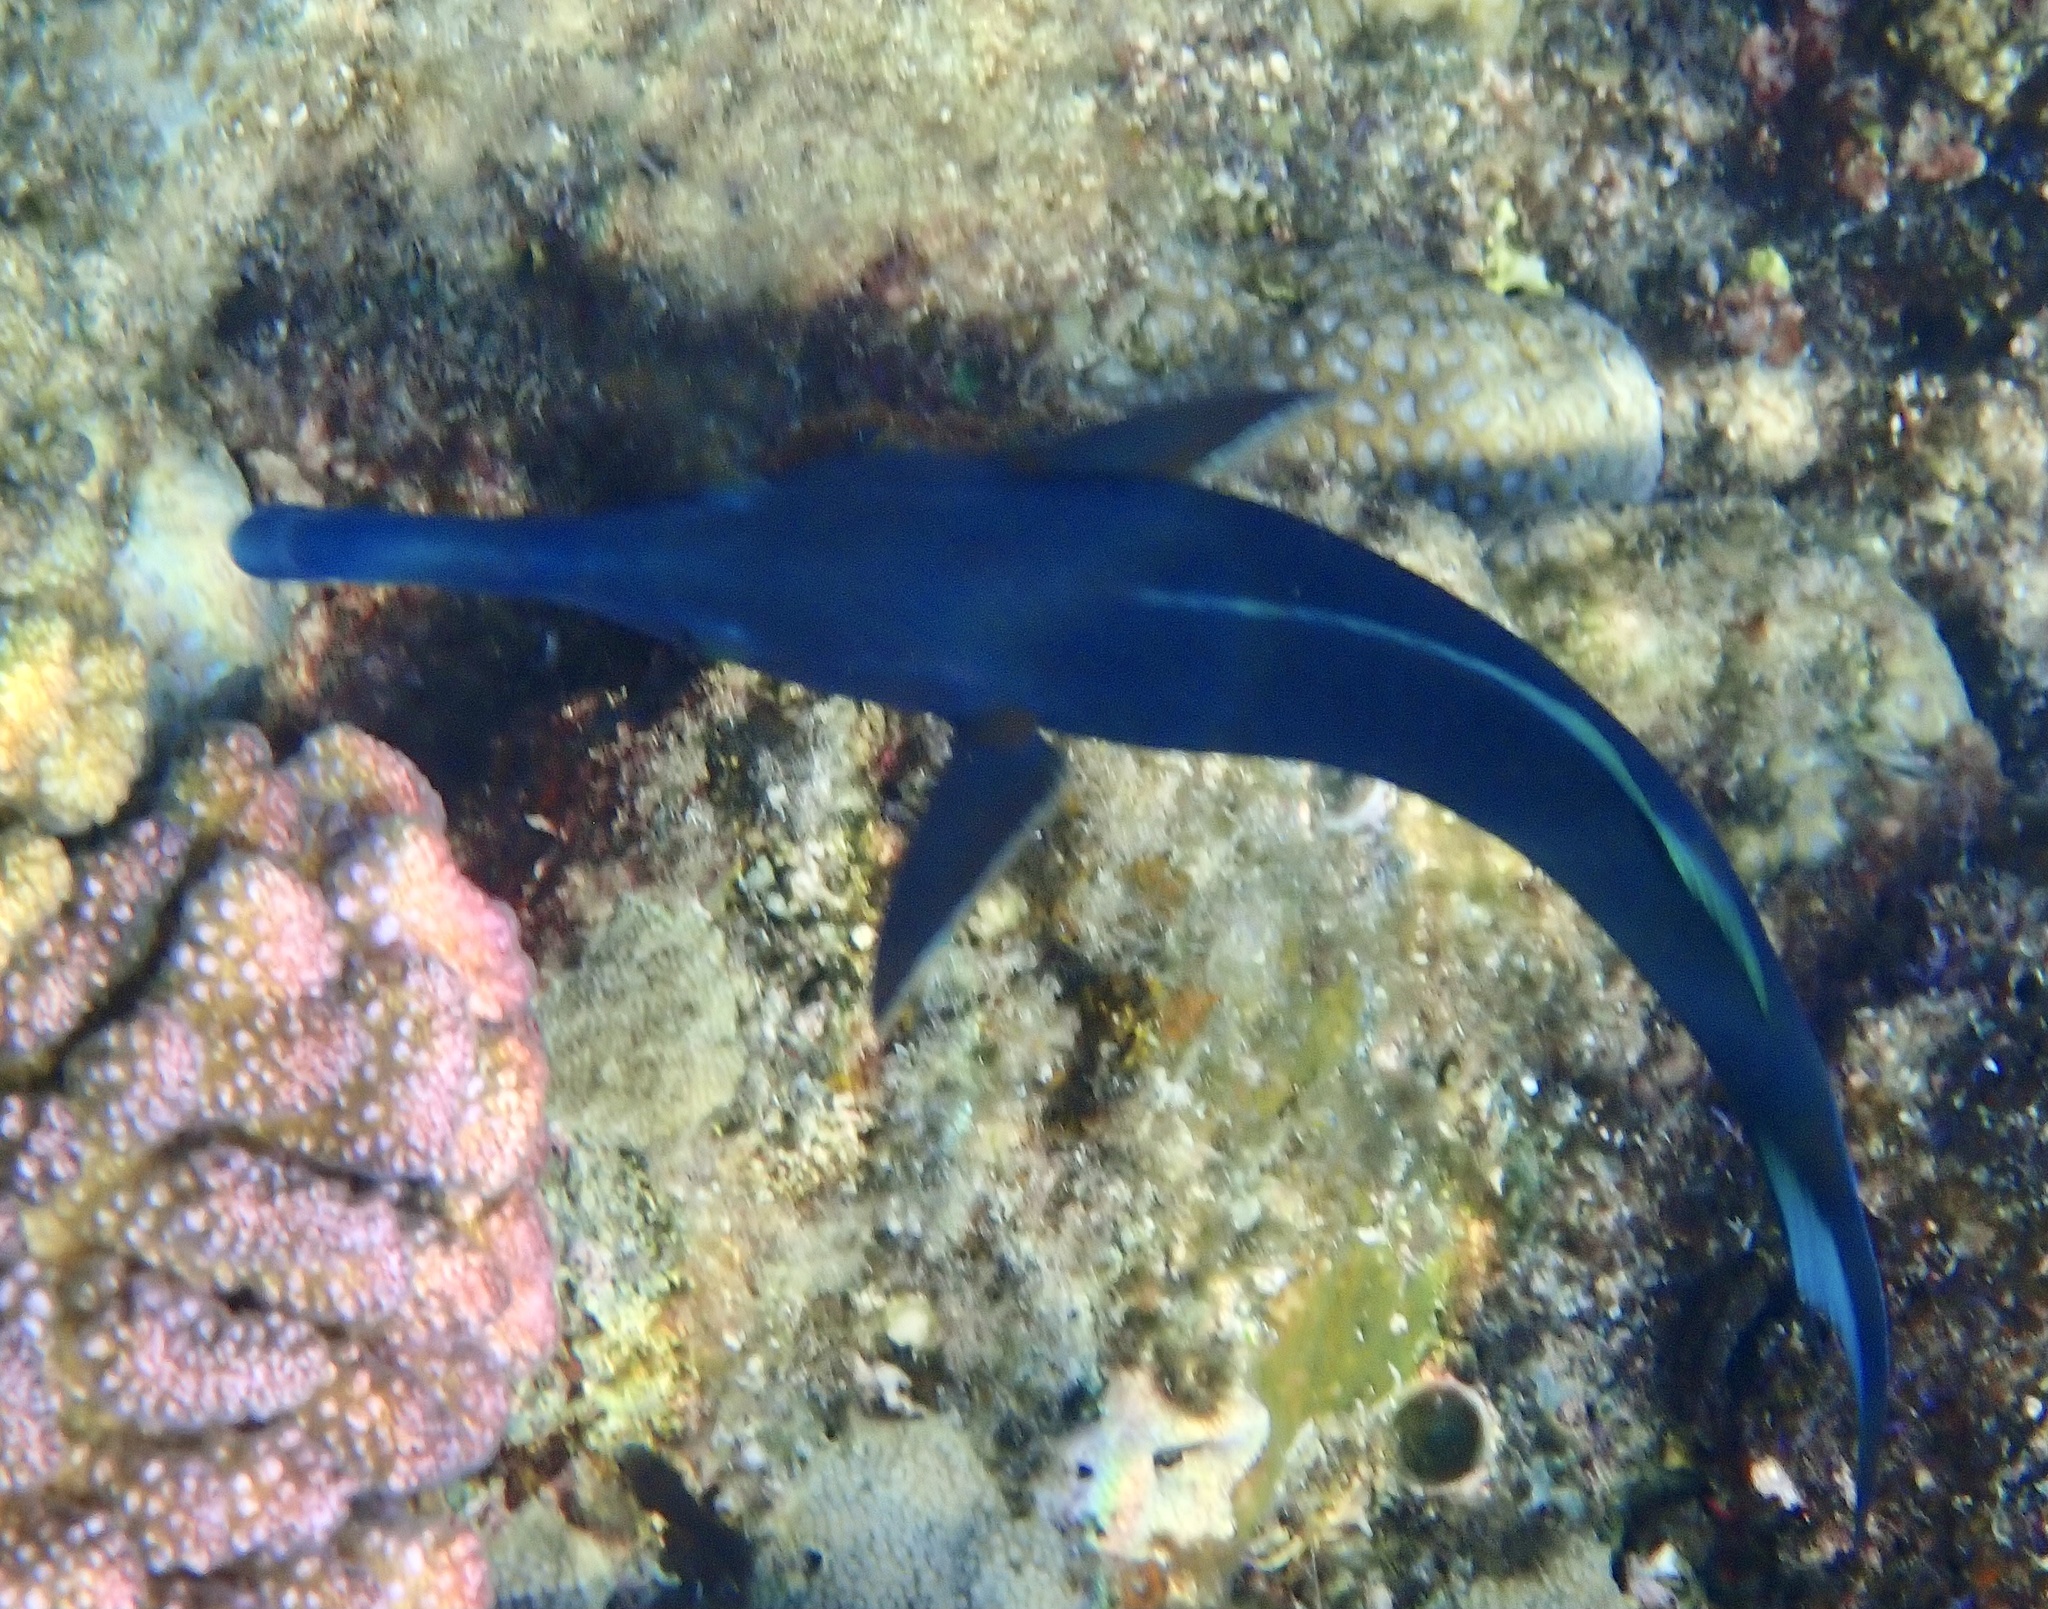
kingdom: Animalia
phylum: Chordata
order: Perciformes
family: Labridae
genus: Gomphosus
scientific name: Gomphosus klunzingeri
